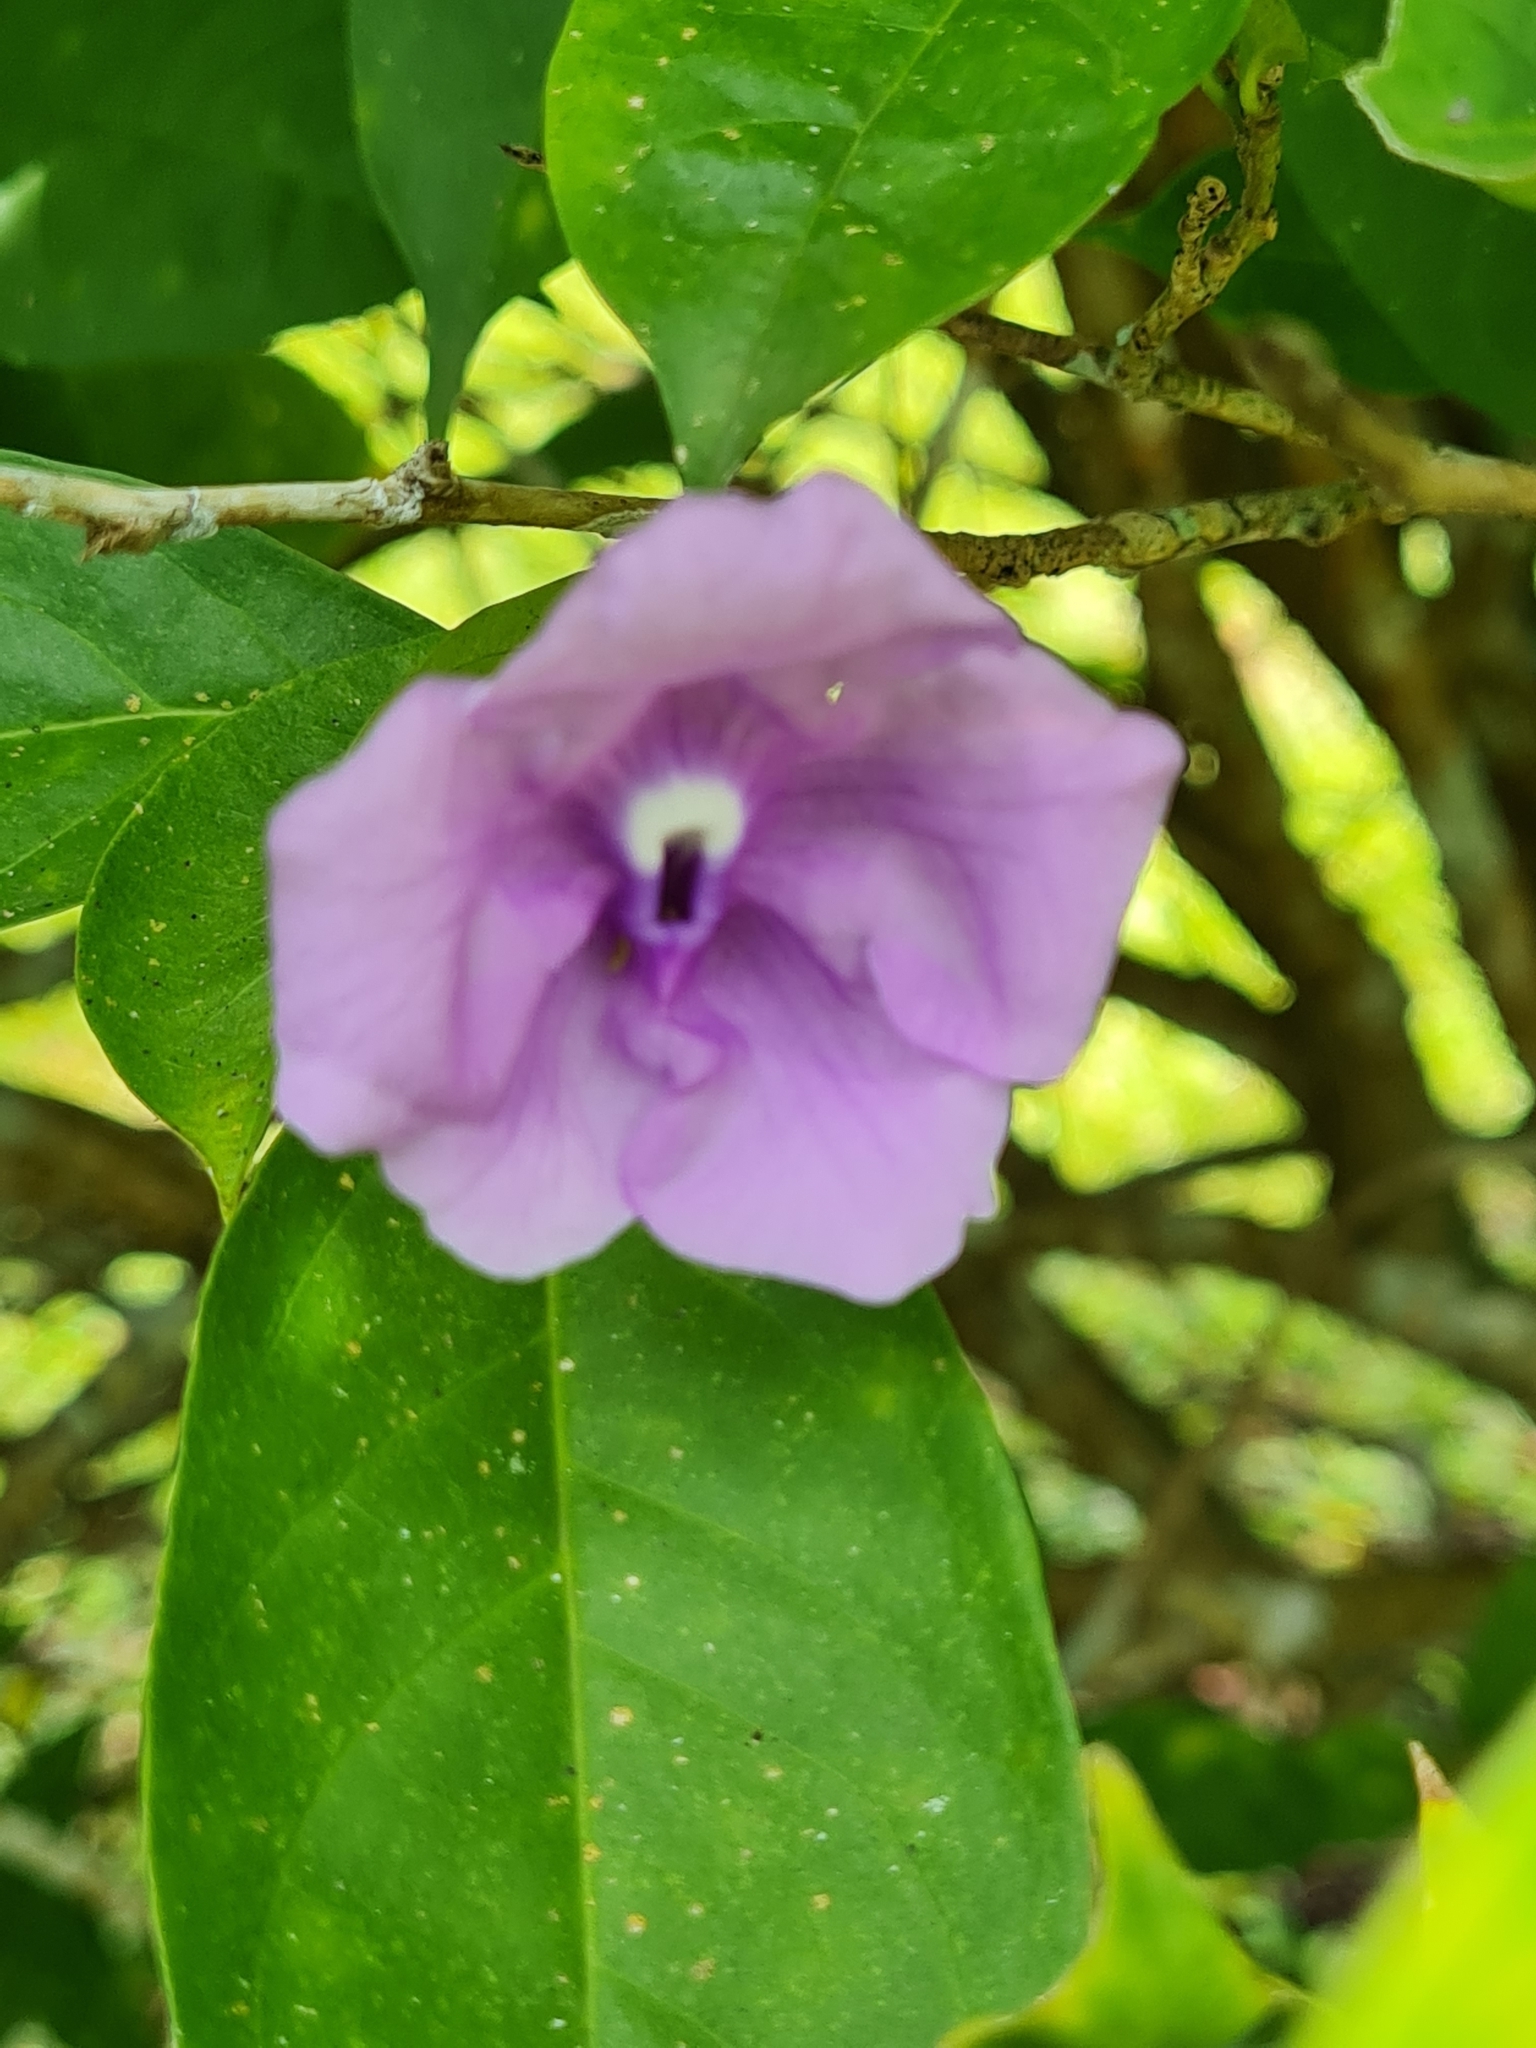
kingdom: Plantae
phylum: Tracheophyta
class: Magnoliopsida
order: Solanales
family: Solanaceae
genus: Brunfelsia
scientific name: Brunfelsia pauciflora
